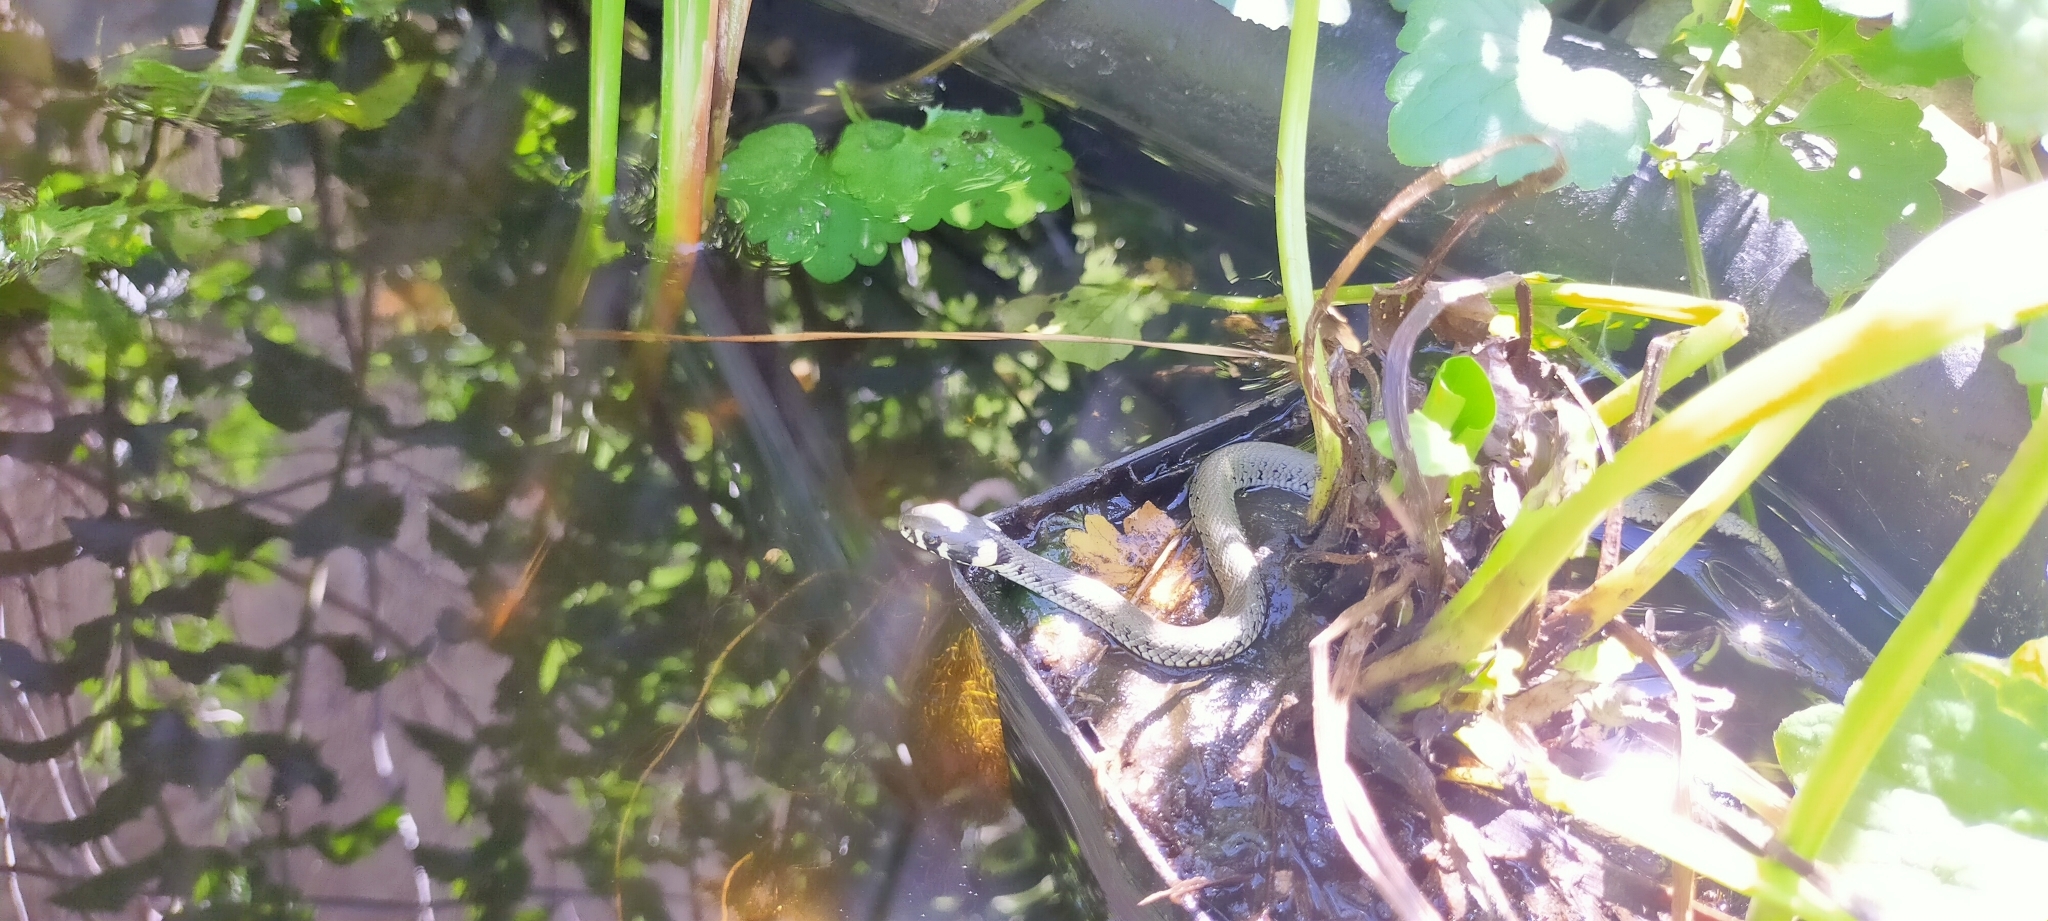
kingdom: Animalia
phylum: Chordata
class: Squamata
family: Colubridae
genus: Natrix
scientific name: Natrix natrix
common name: Grass snake
